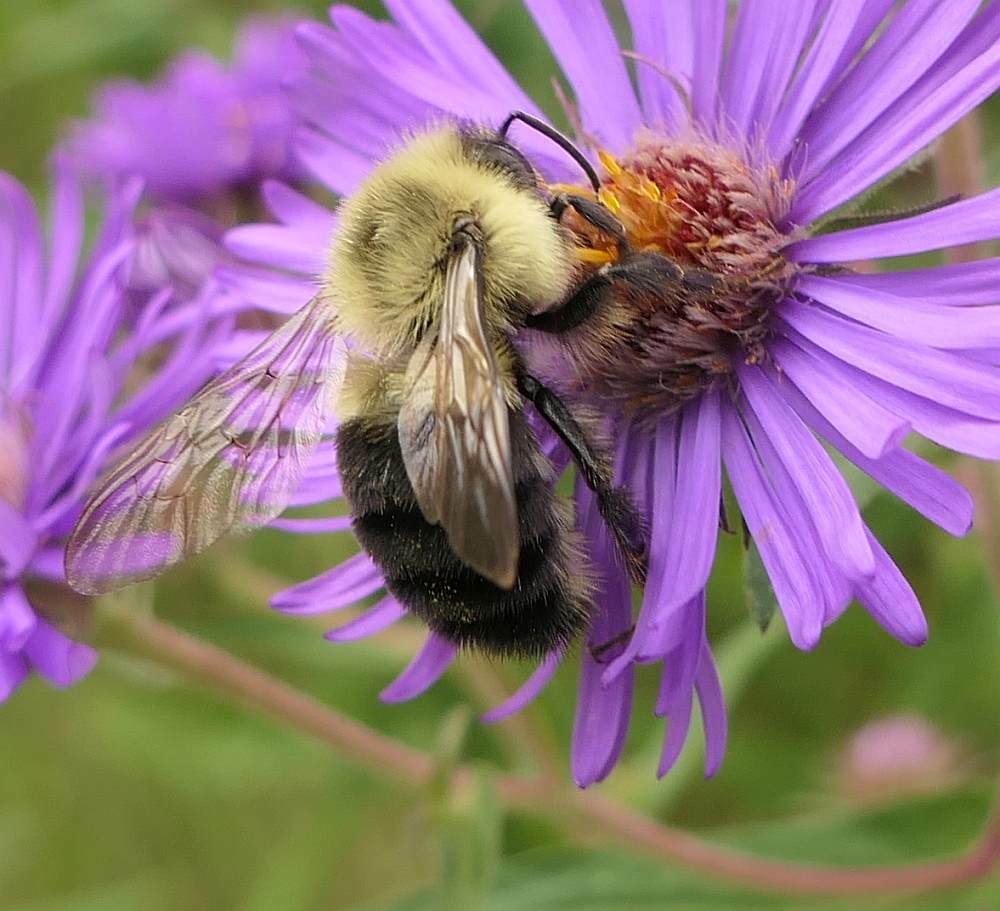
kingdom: Animalia
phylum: Arthropoda
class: Insecta
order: Hymenoptera
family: Apidae
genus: Bombus
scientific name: Bombus impatiens
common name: Common eastern bumble bee
